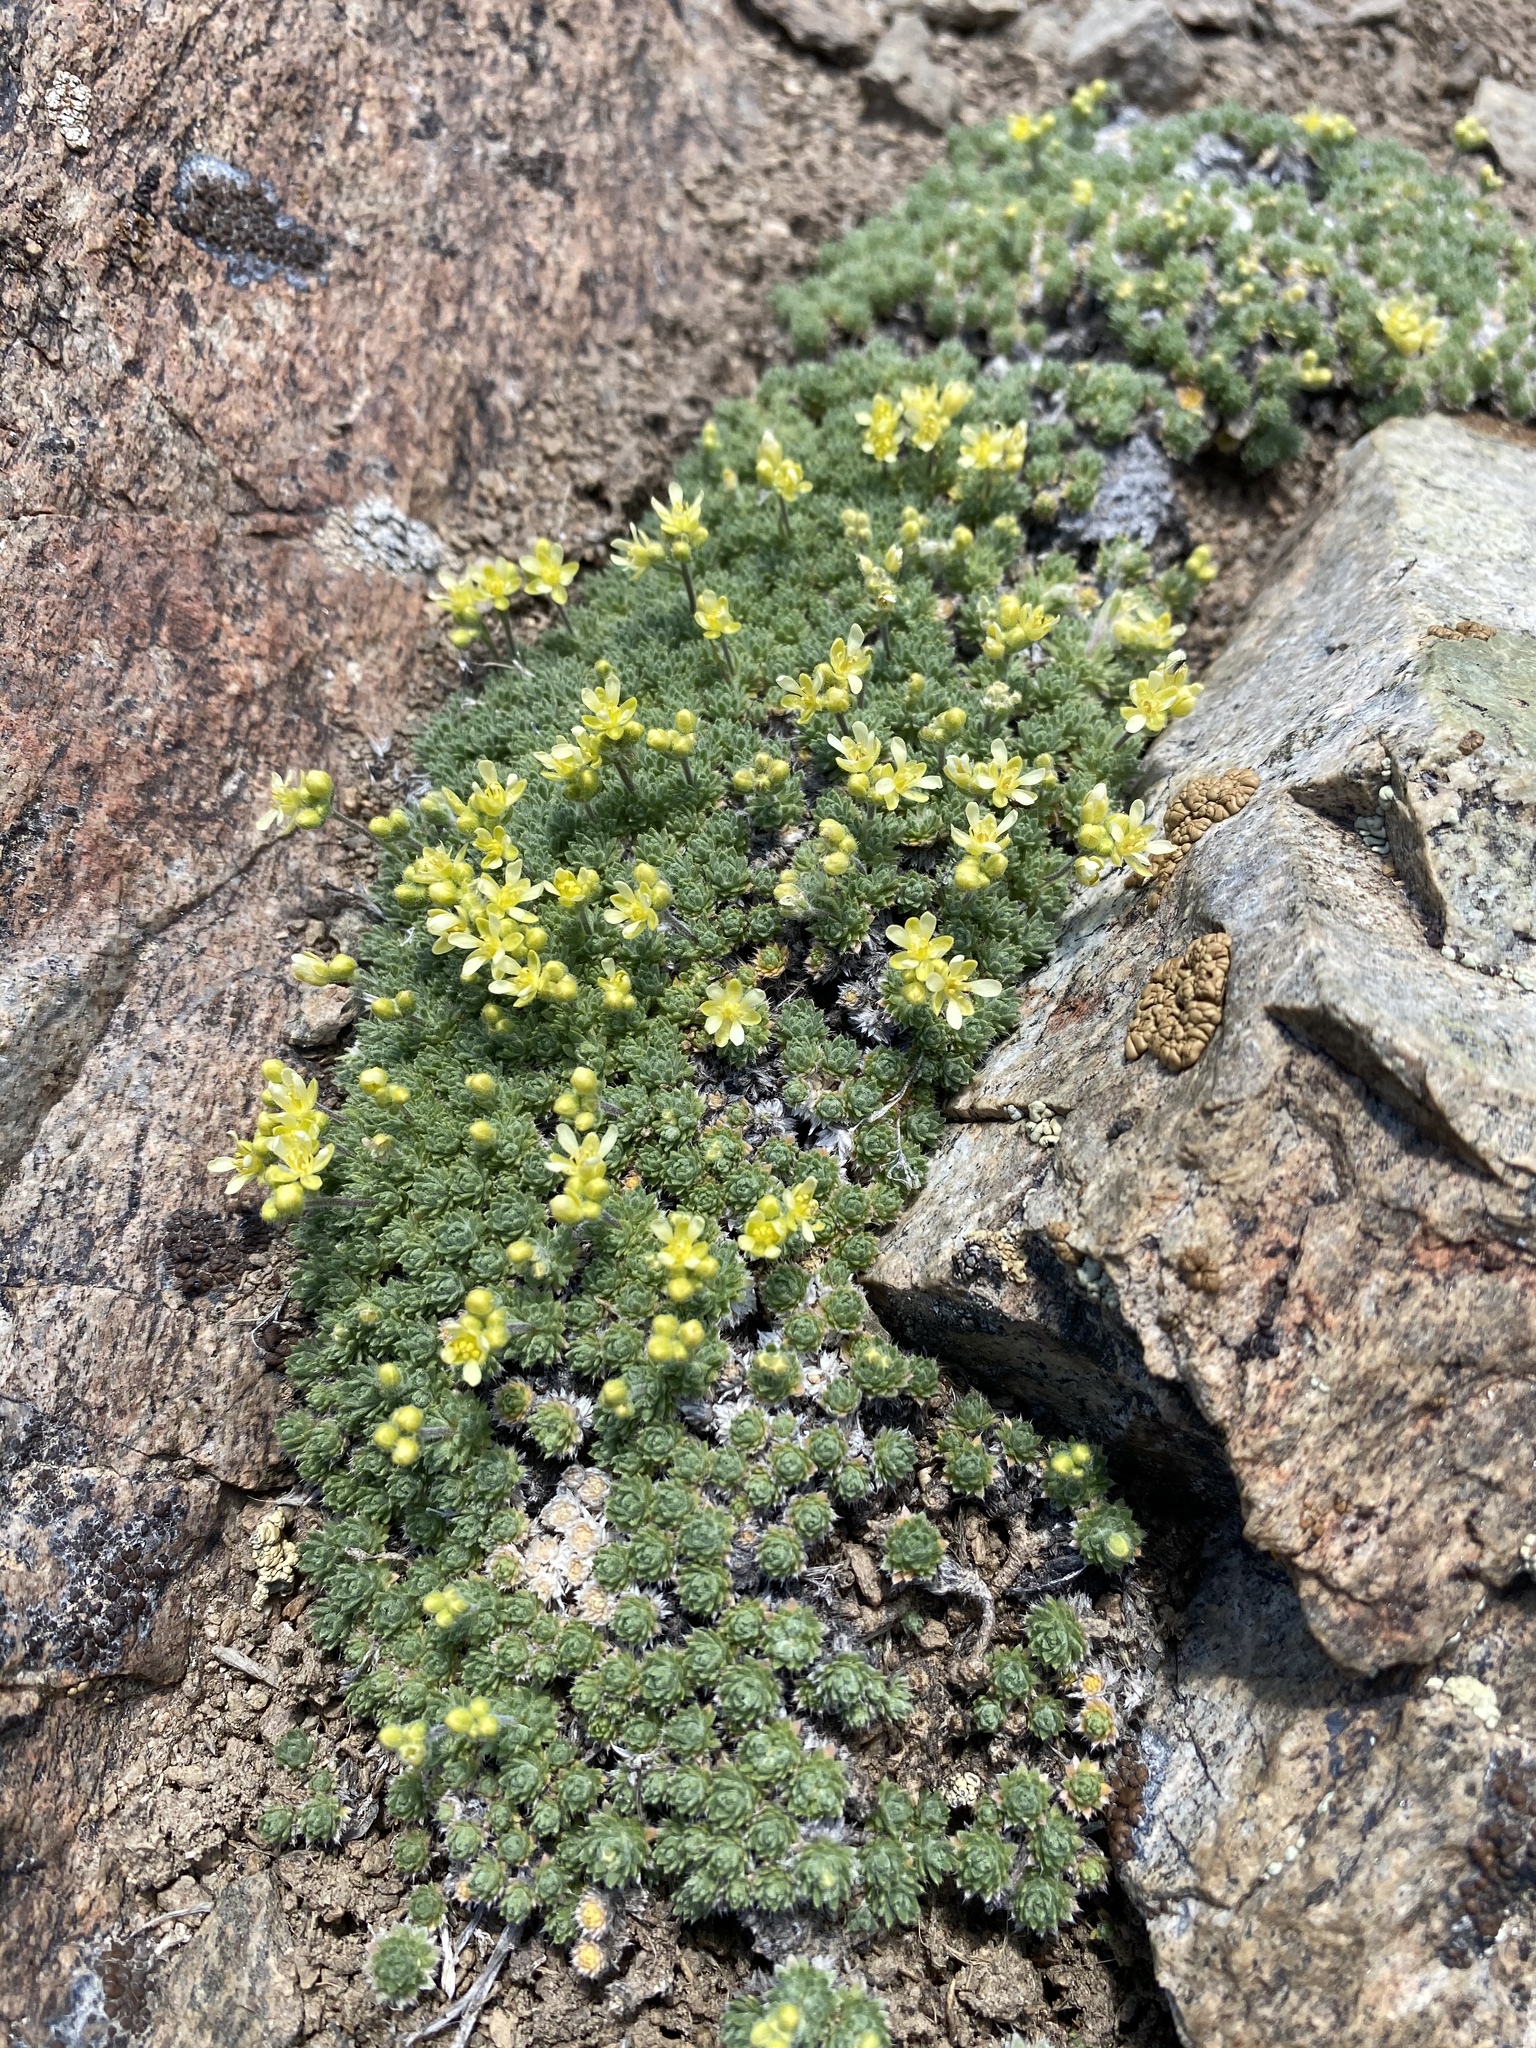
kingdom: Plantae
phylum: Tracheophyta
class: Magnoliopsida
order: Brassicales
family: Brassicaceae
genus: Cusickiella
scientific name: Cusickiella quadricostata
